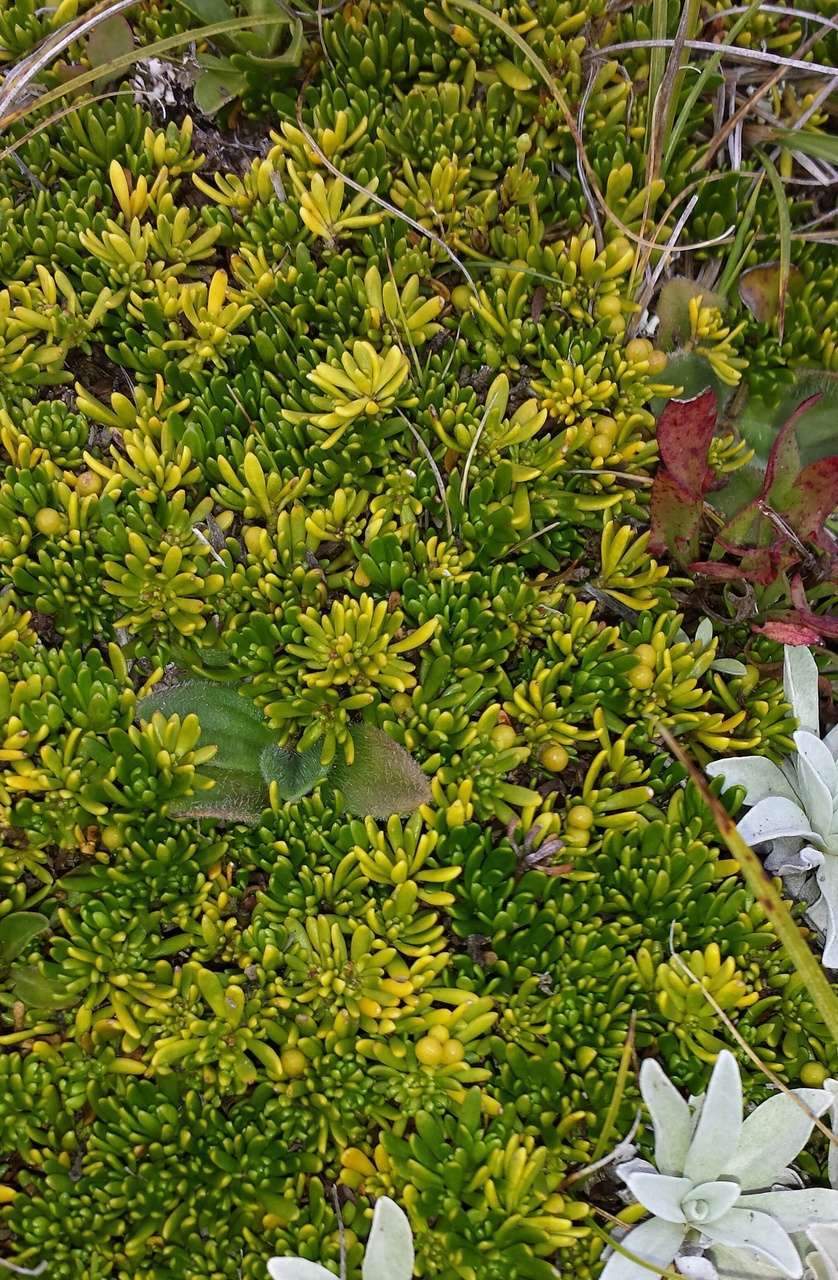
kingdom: Plantae
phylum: Tracheophyta
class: Magnoliopsida
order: Celastrales
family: Celastraceae
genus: Stackhousia
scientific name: Stackhousia pulvinaris
